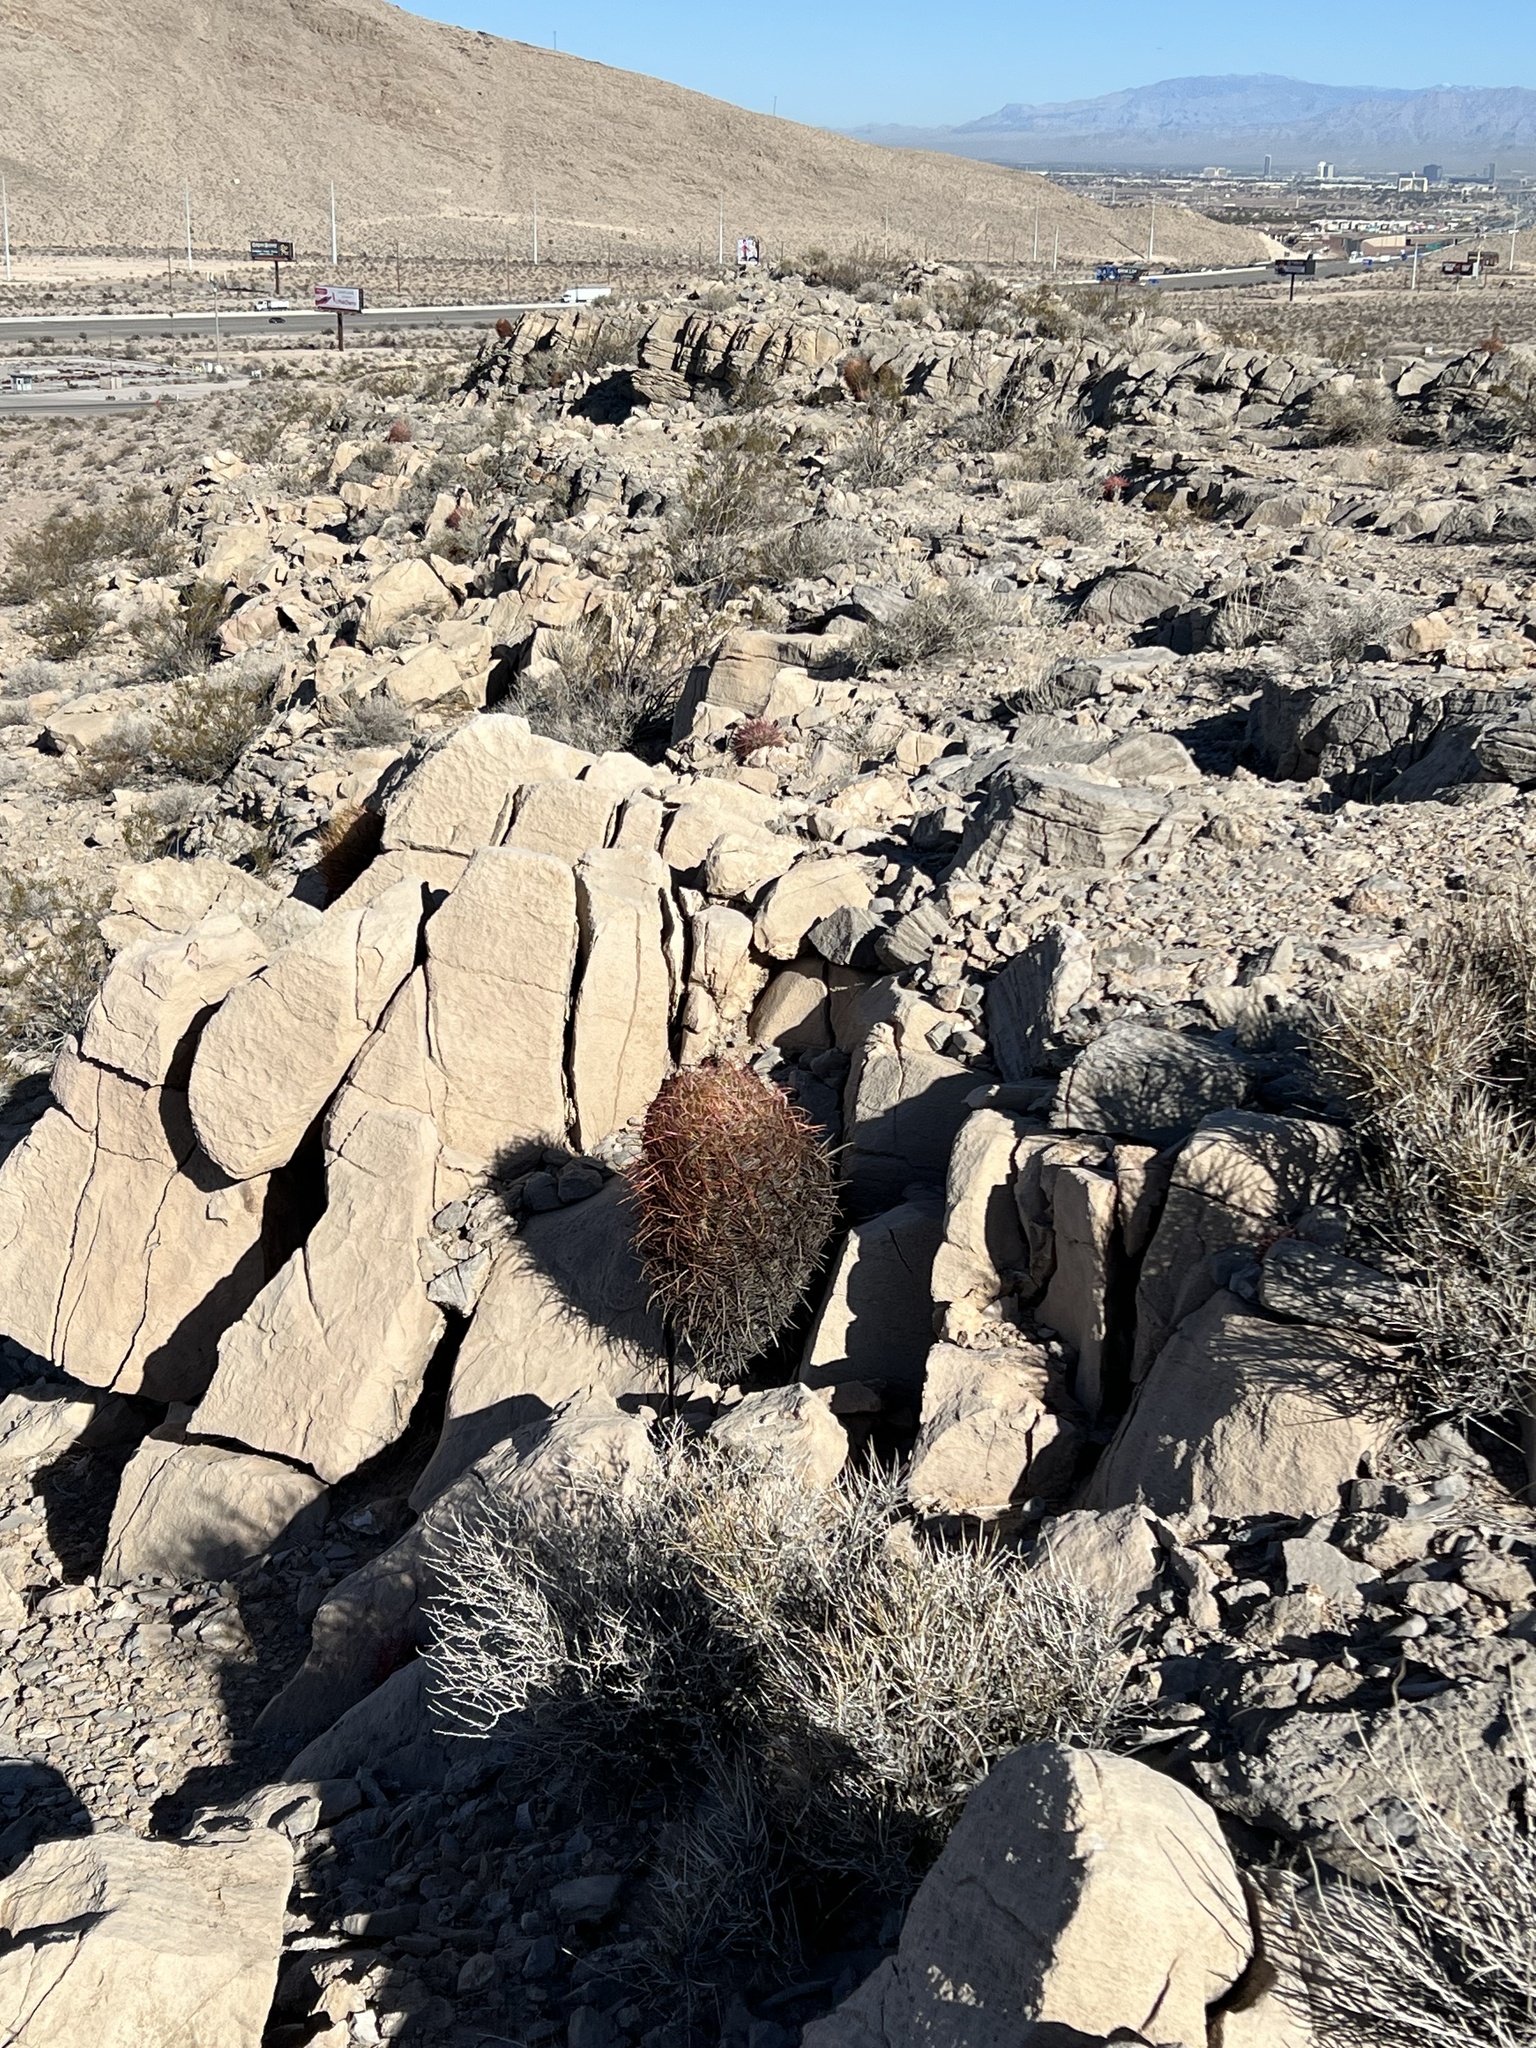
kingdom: Plantae
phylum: Tracheophyta
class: Magnoliopsida
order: Caryophyllales
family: Cactaceae
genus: Ferocactus
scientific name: Ferocactus cylindraceus
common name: California barrel cactus
